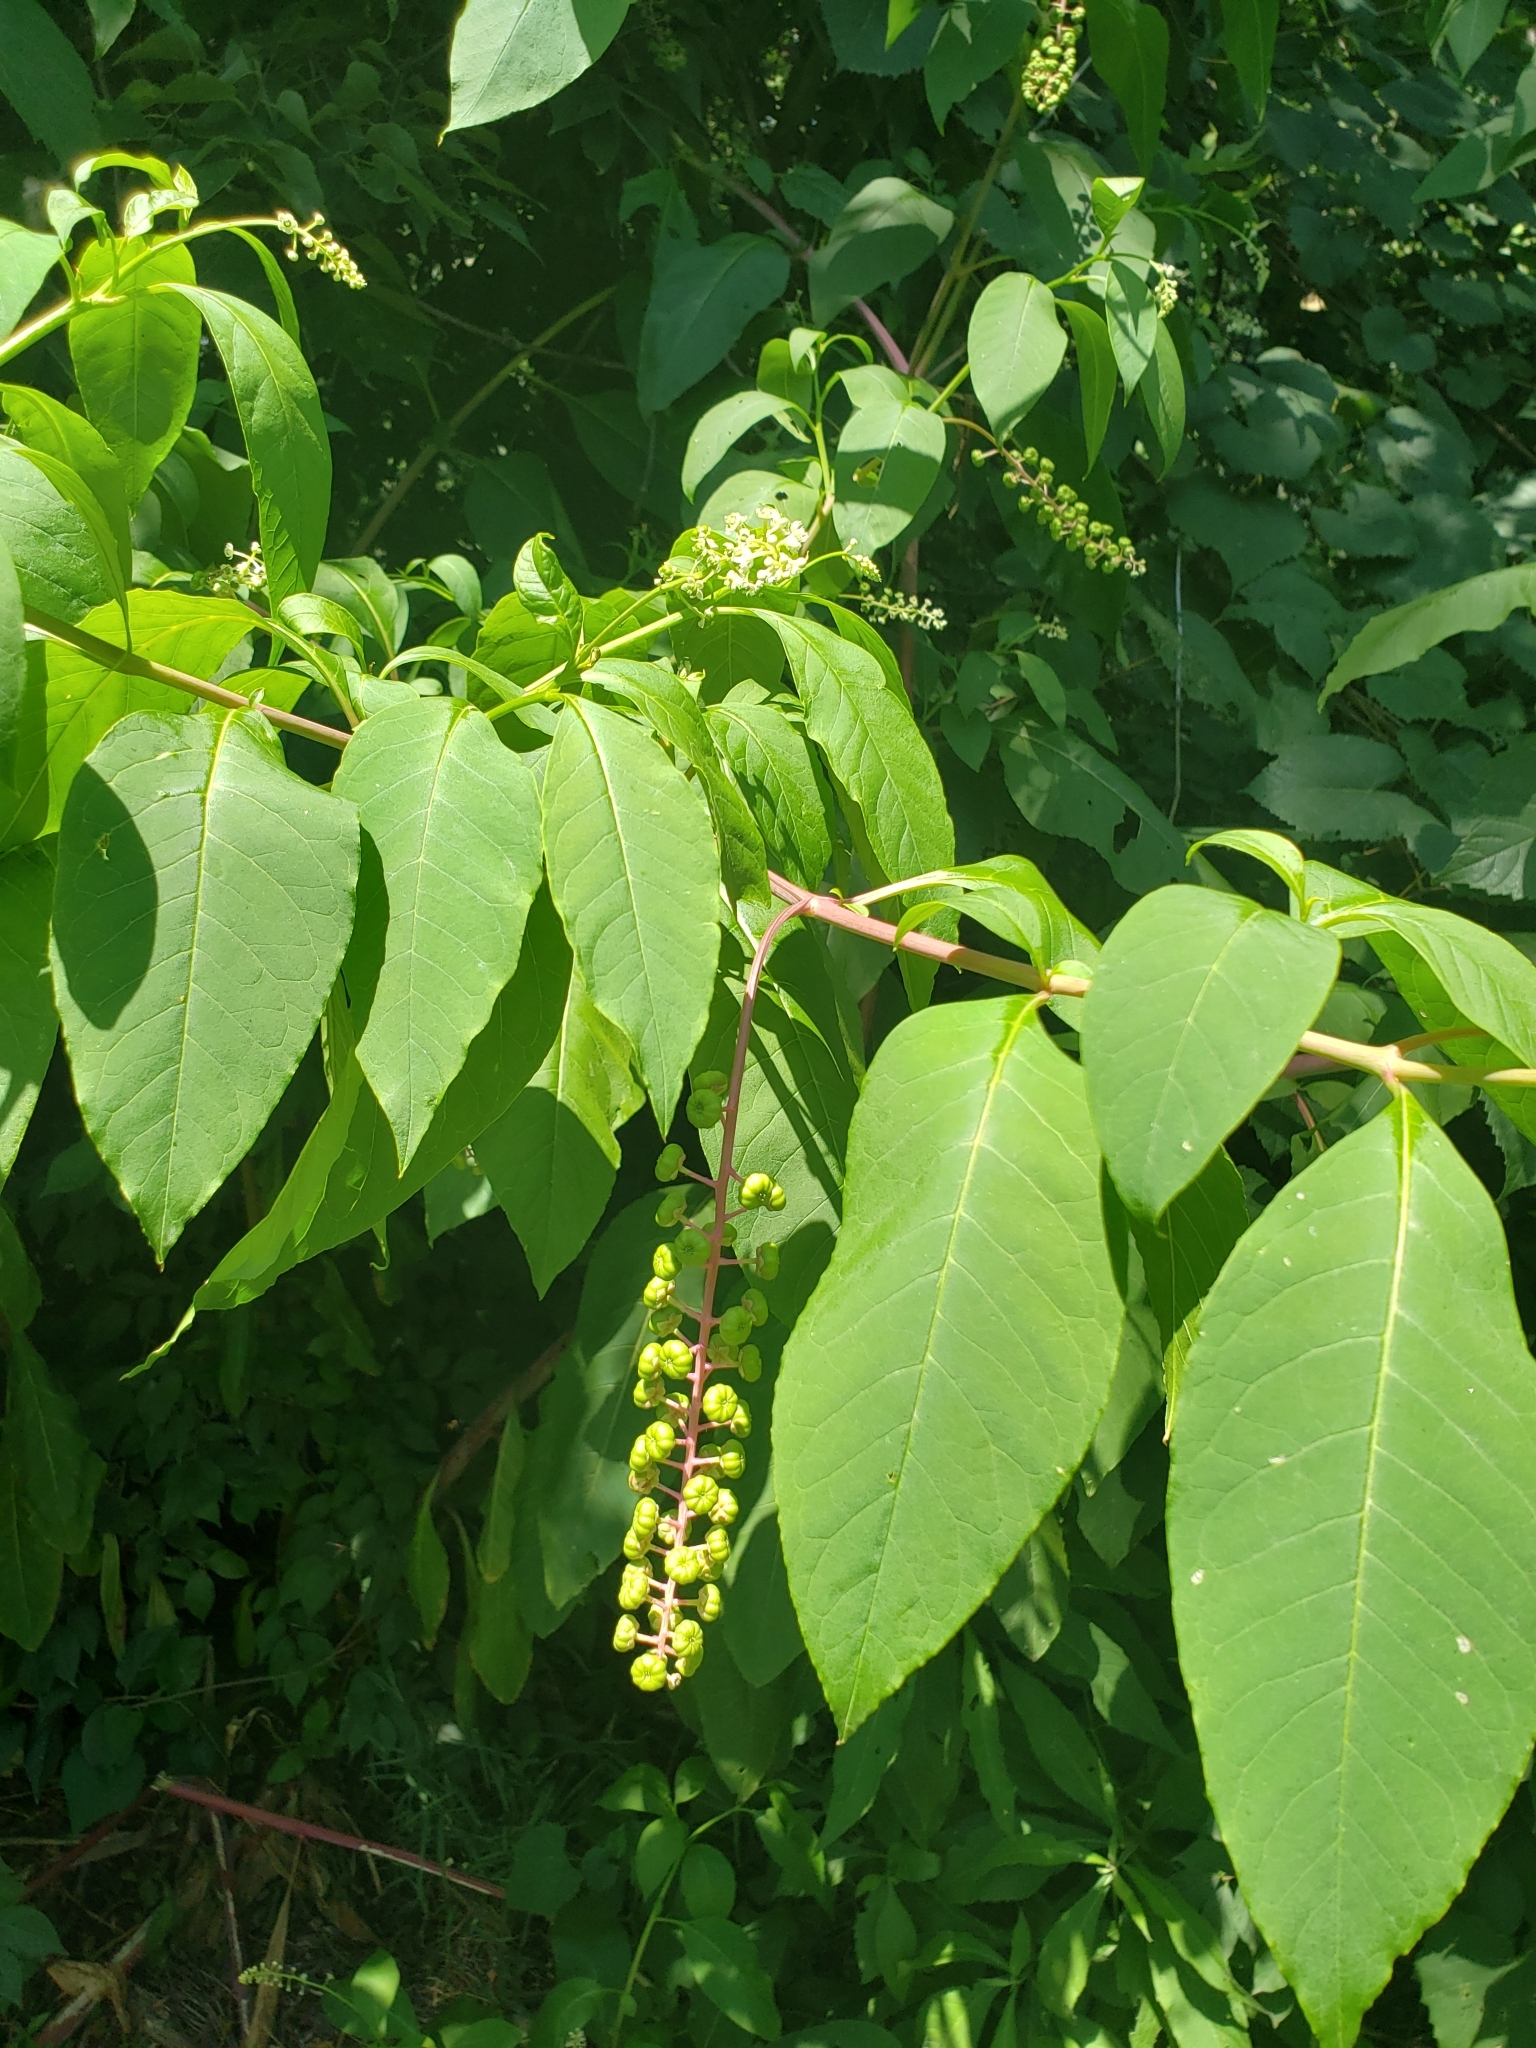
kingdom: Plantae
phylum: Tracheophyta
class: Magnoliopsida
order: Caryophyllales
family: Phytolaccaceae
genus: Phytolacca
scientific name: Phytolacca americana
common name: American pokeweed
